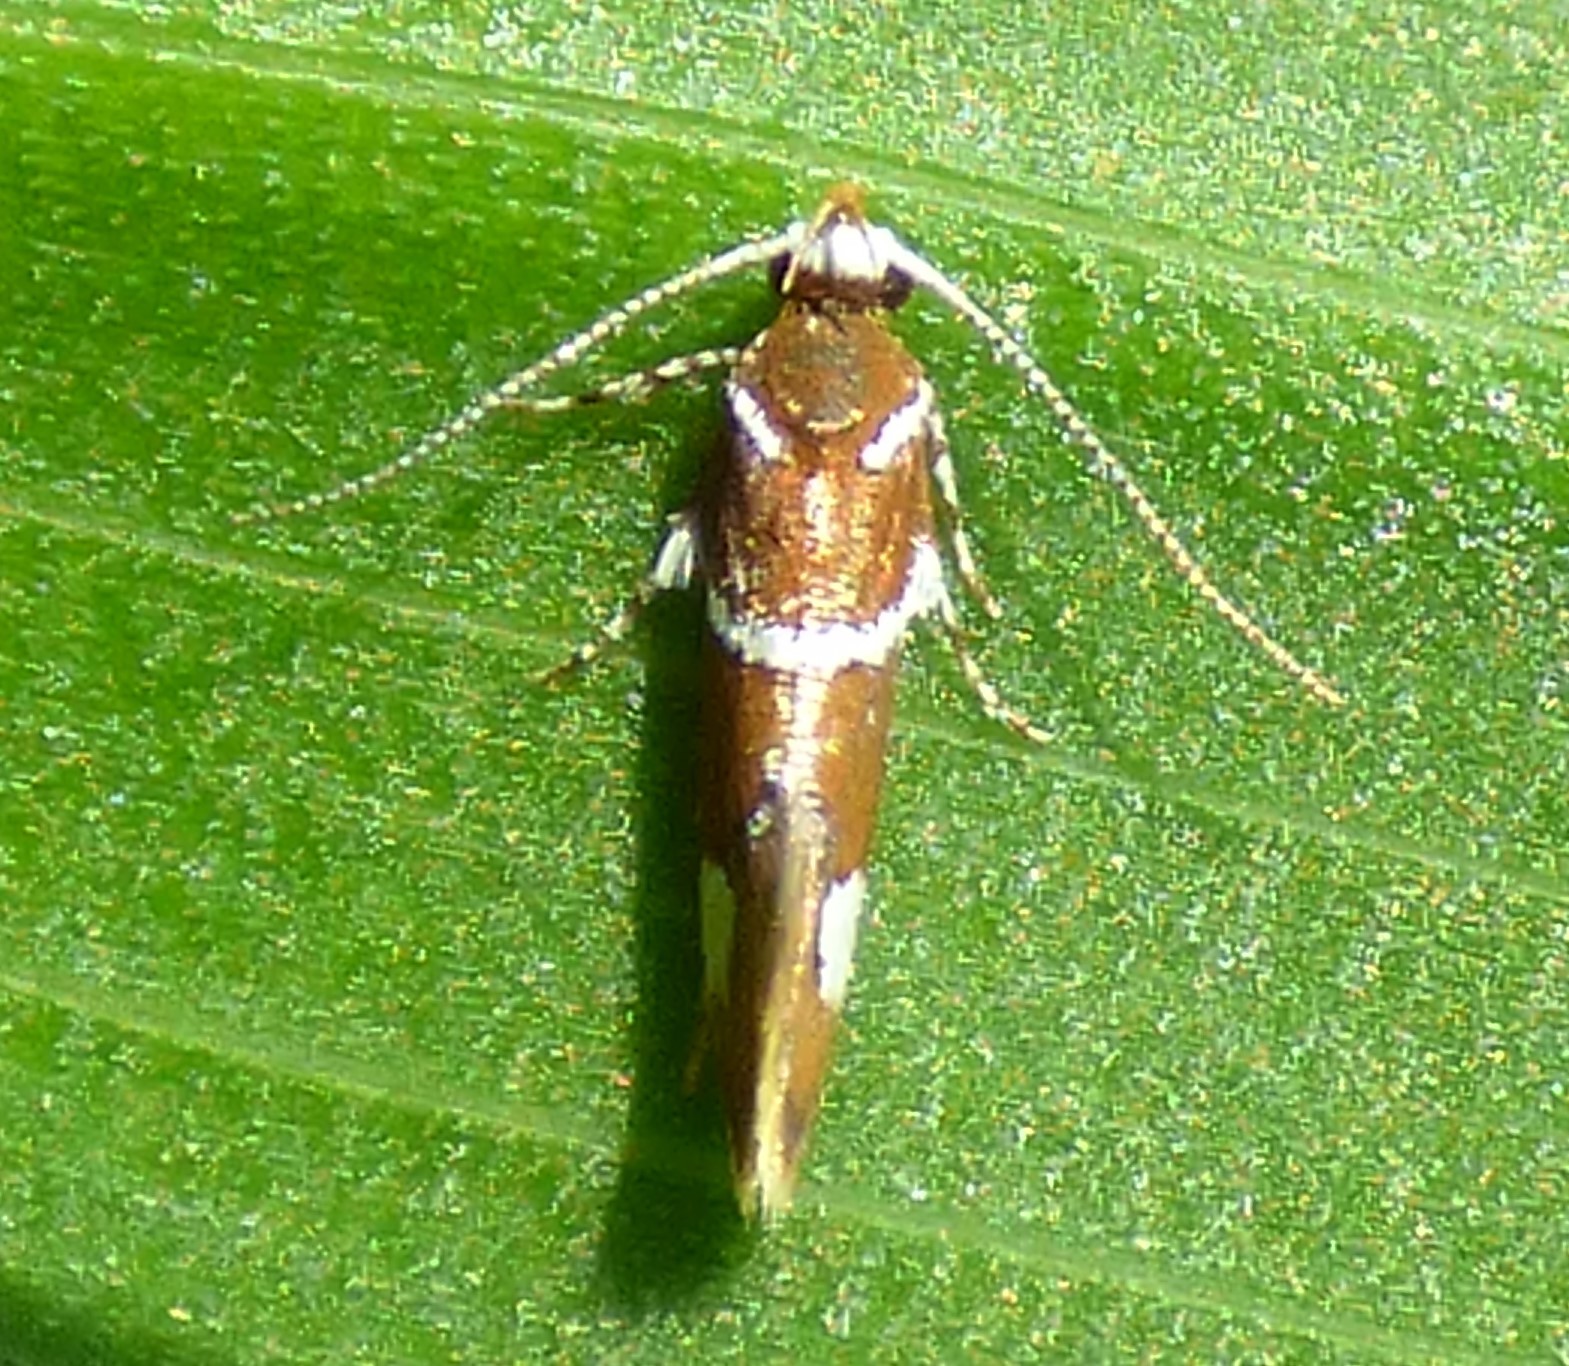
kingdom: Animalia
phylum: Arthropoda
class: Insecta
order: Lepidoptera
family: Oecophoridae
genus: Promalactis
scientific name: Promalactis suzukiella
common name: Moth
